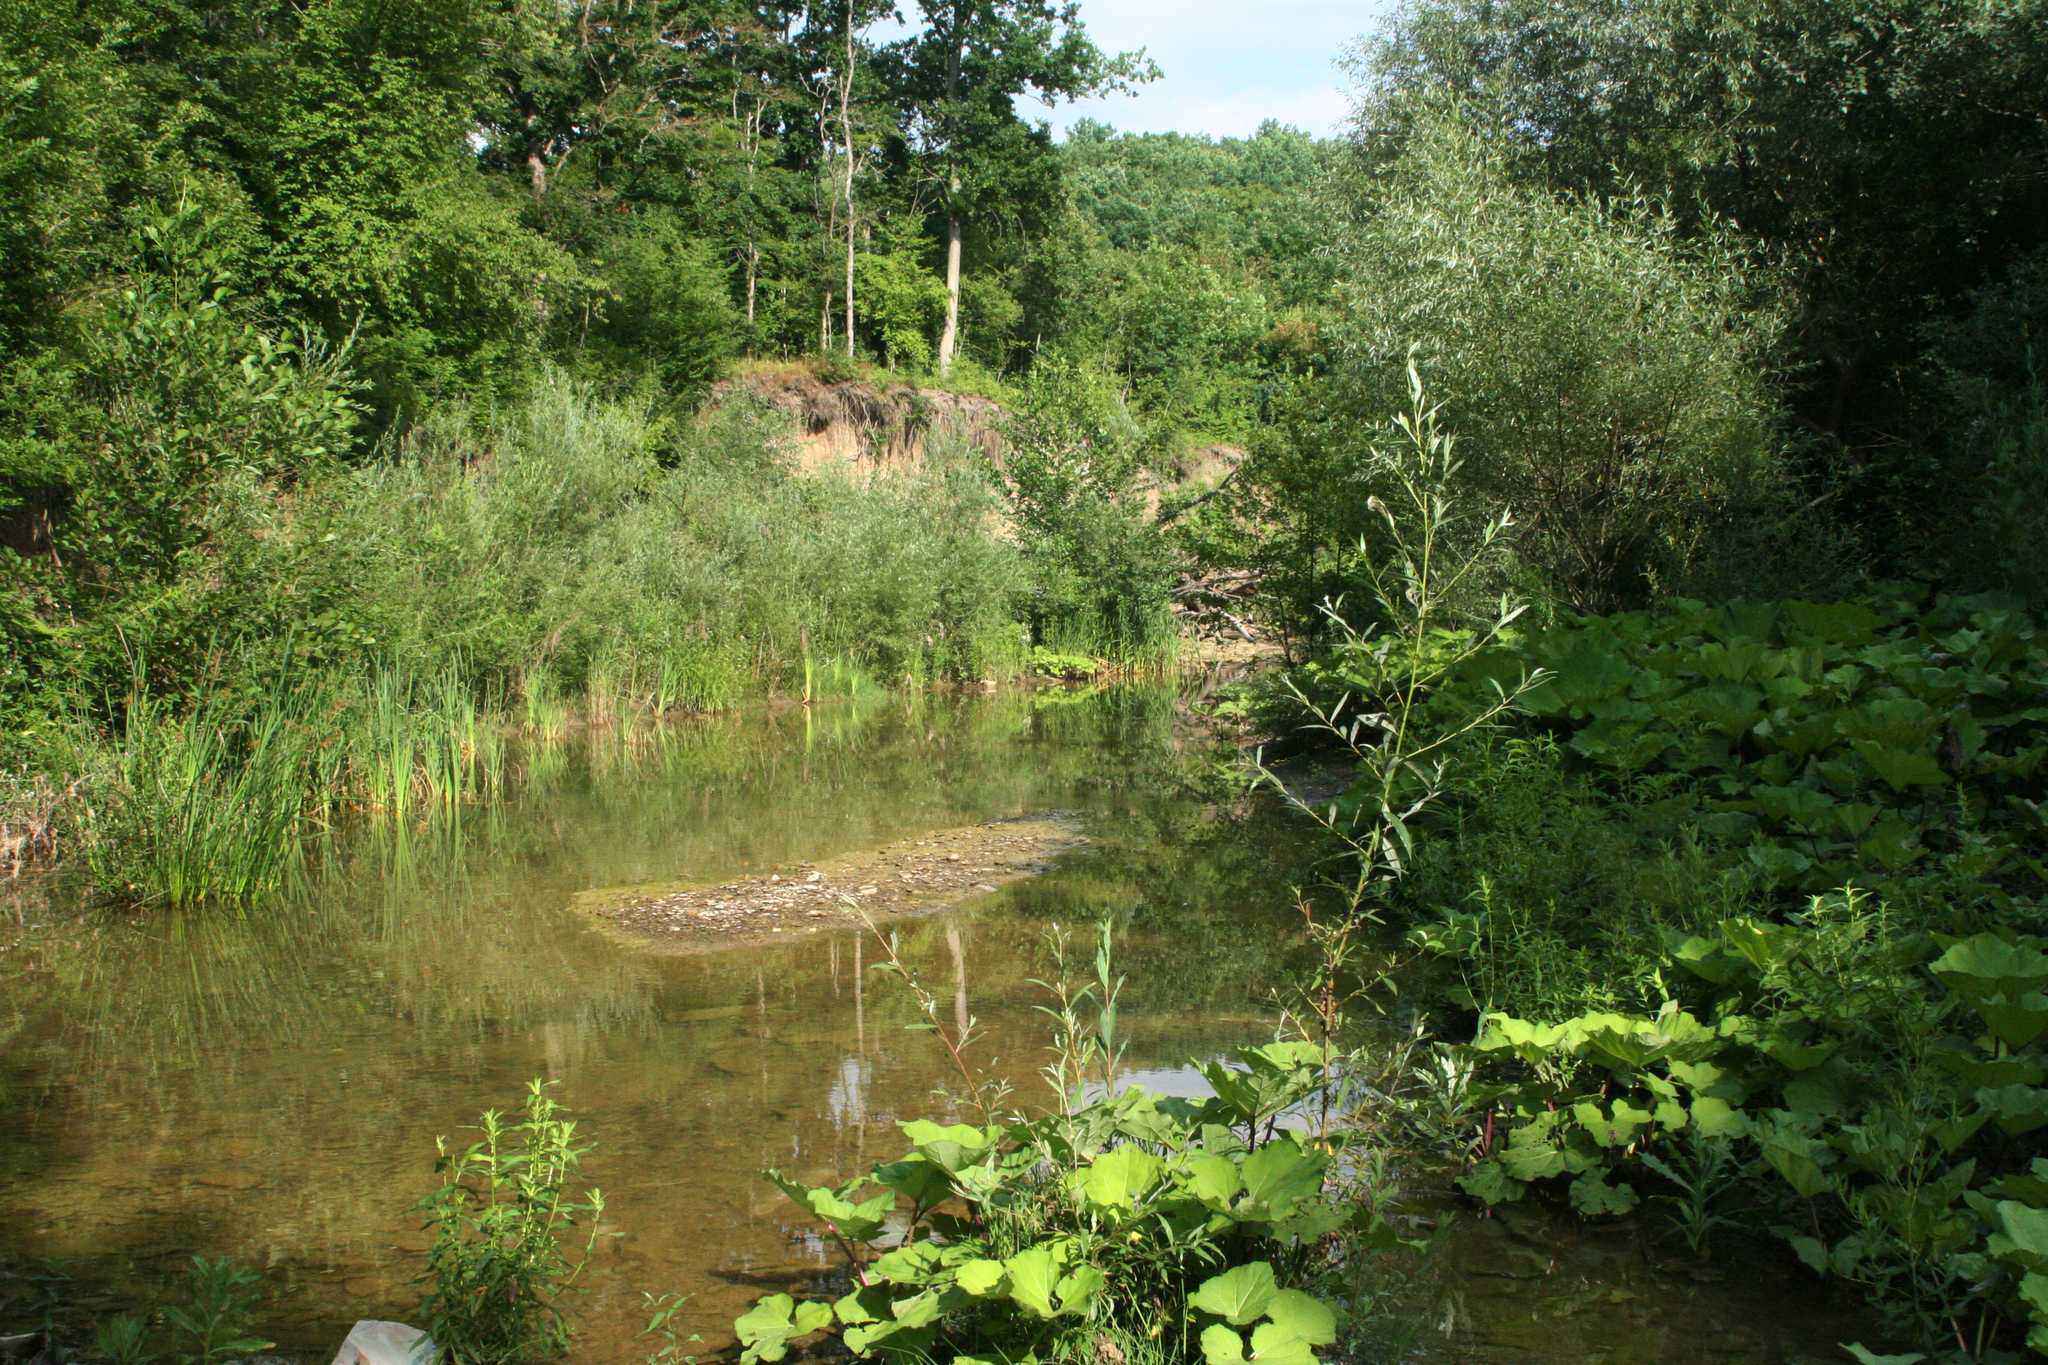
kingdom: Plantae
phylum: Tracheophyta
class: Magnoliopsida
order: Asterales
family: Asteraceae
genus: Petasites
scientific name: Petasites albus
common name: White butterbur
